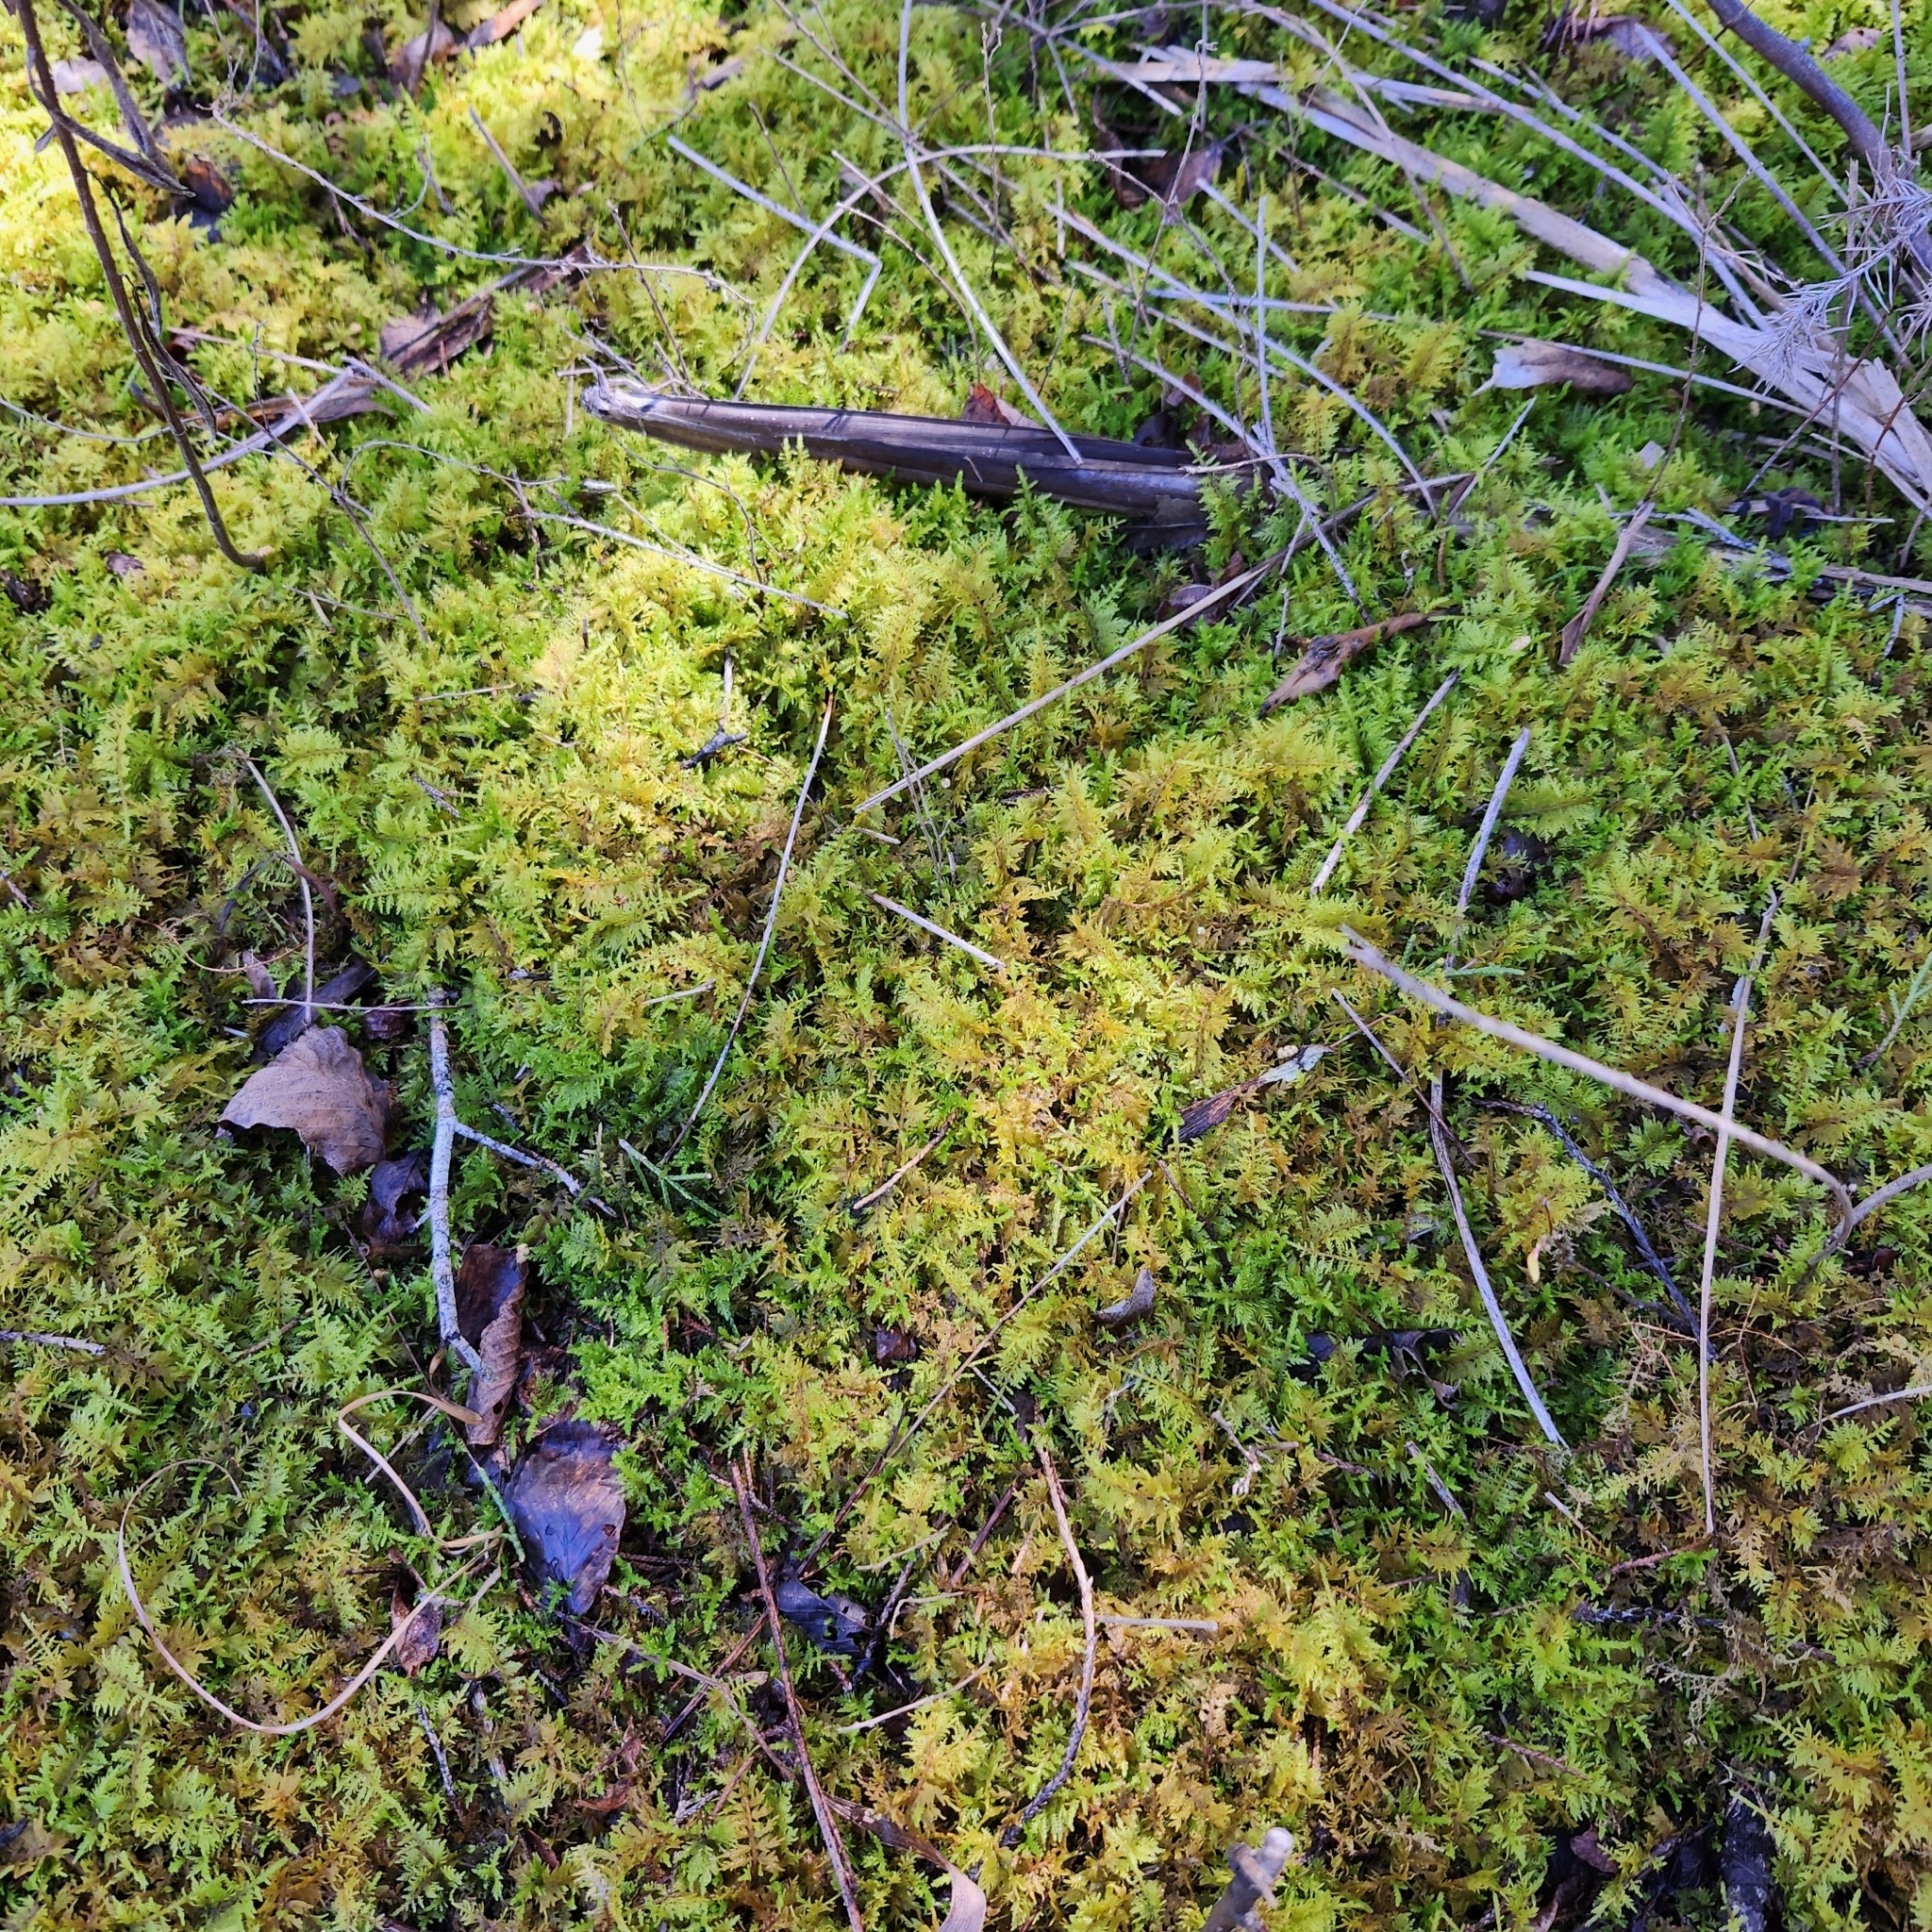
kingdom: Plantae
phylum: Bryophyta
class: Bryopsida
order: Hypnales
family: Thuidiaceae
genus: Thuidium
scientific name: Thuidium delicatulum
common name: Delicate fern moss
